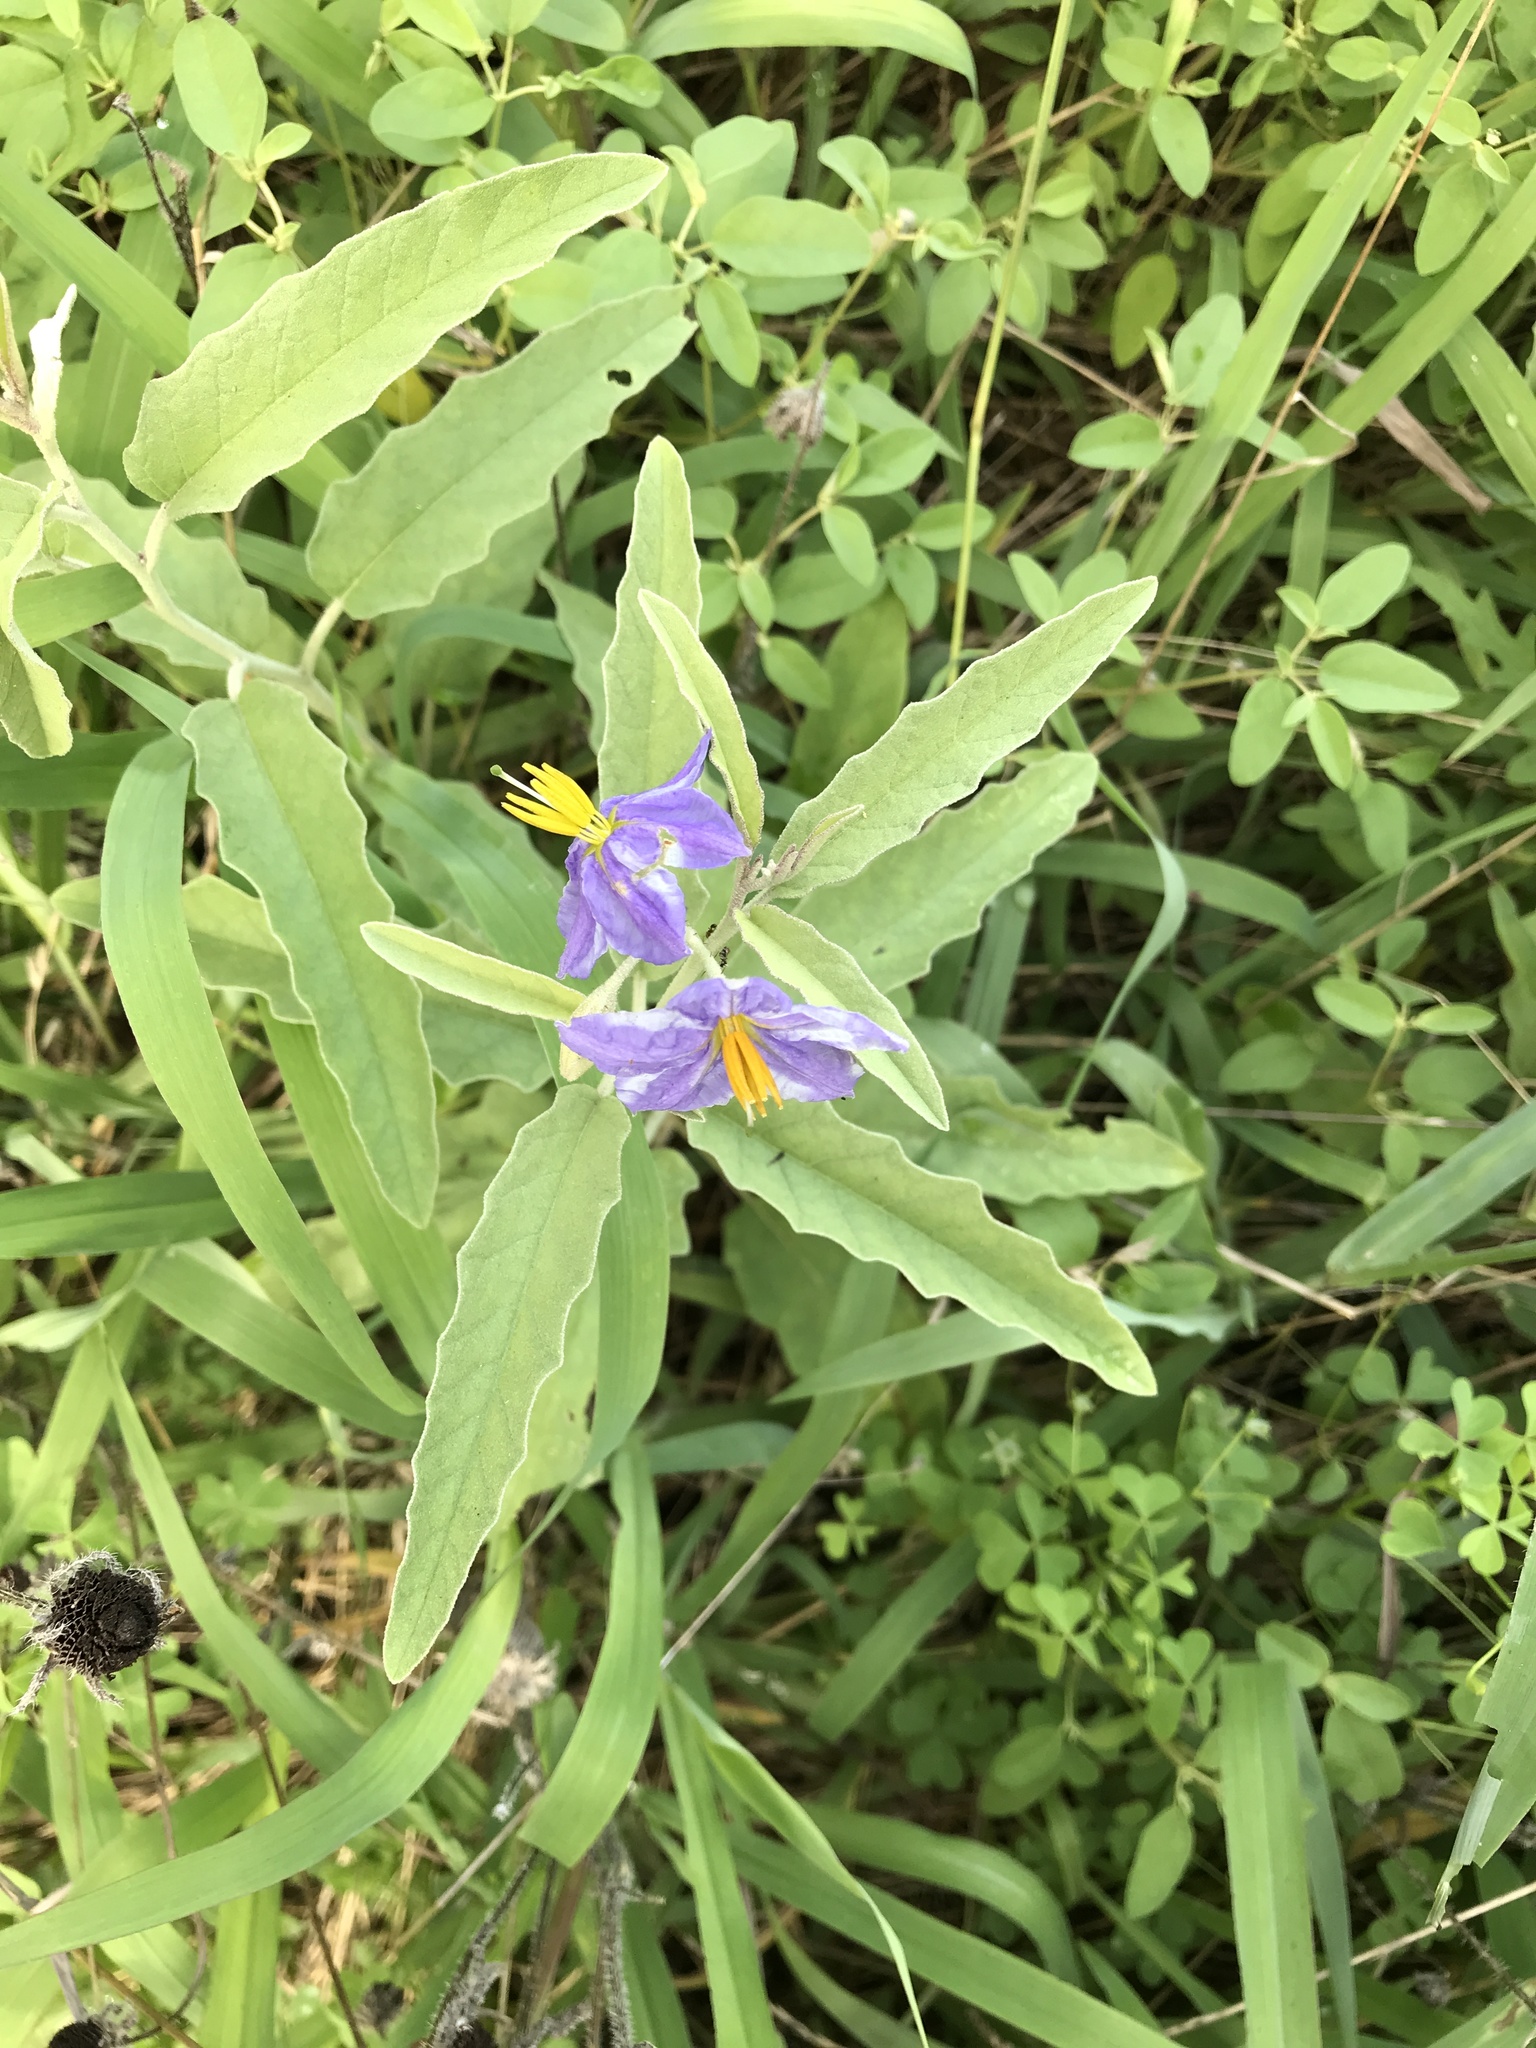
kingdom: Plantae
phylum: Tracheophyta
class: Magnoliopsida
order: Solanales
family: Solanaceae
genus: Solanum
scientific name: Solanum elaeagnifolium
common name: Silverleaf nightshade
